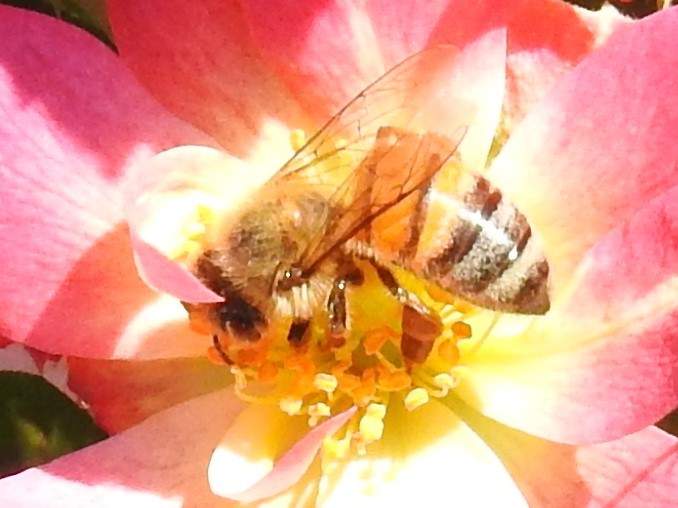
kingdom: Animalia
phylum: Arthropoda
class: Insecta
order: Hymenoptera
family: Apidae
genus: Apis
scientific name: Apis mellifera
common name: Honey bee
